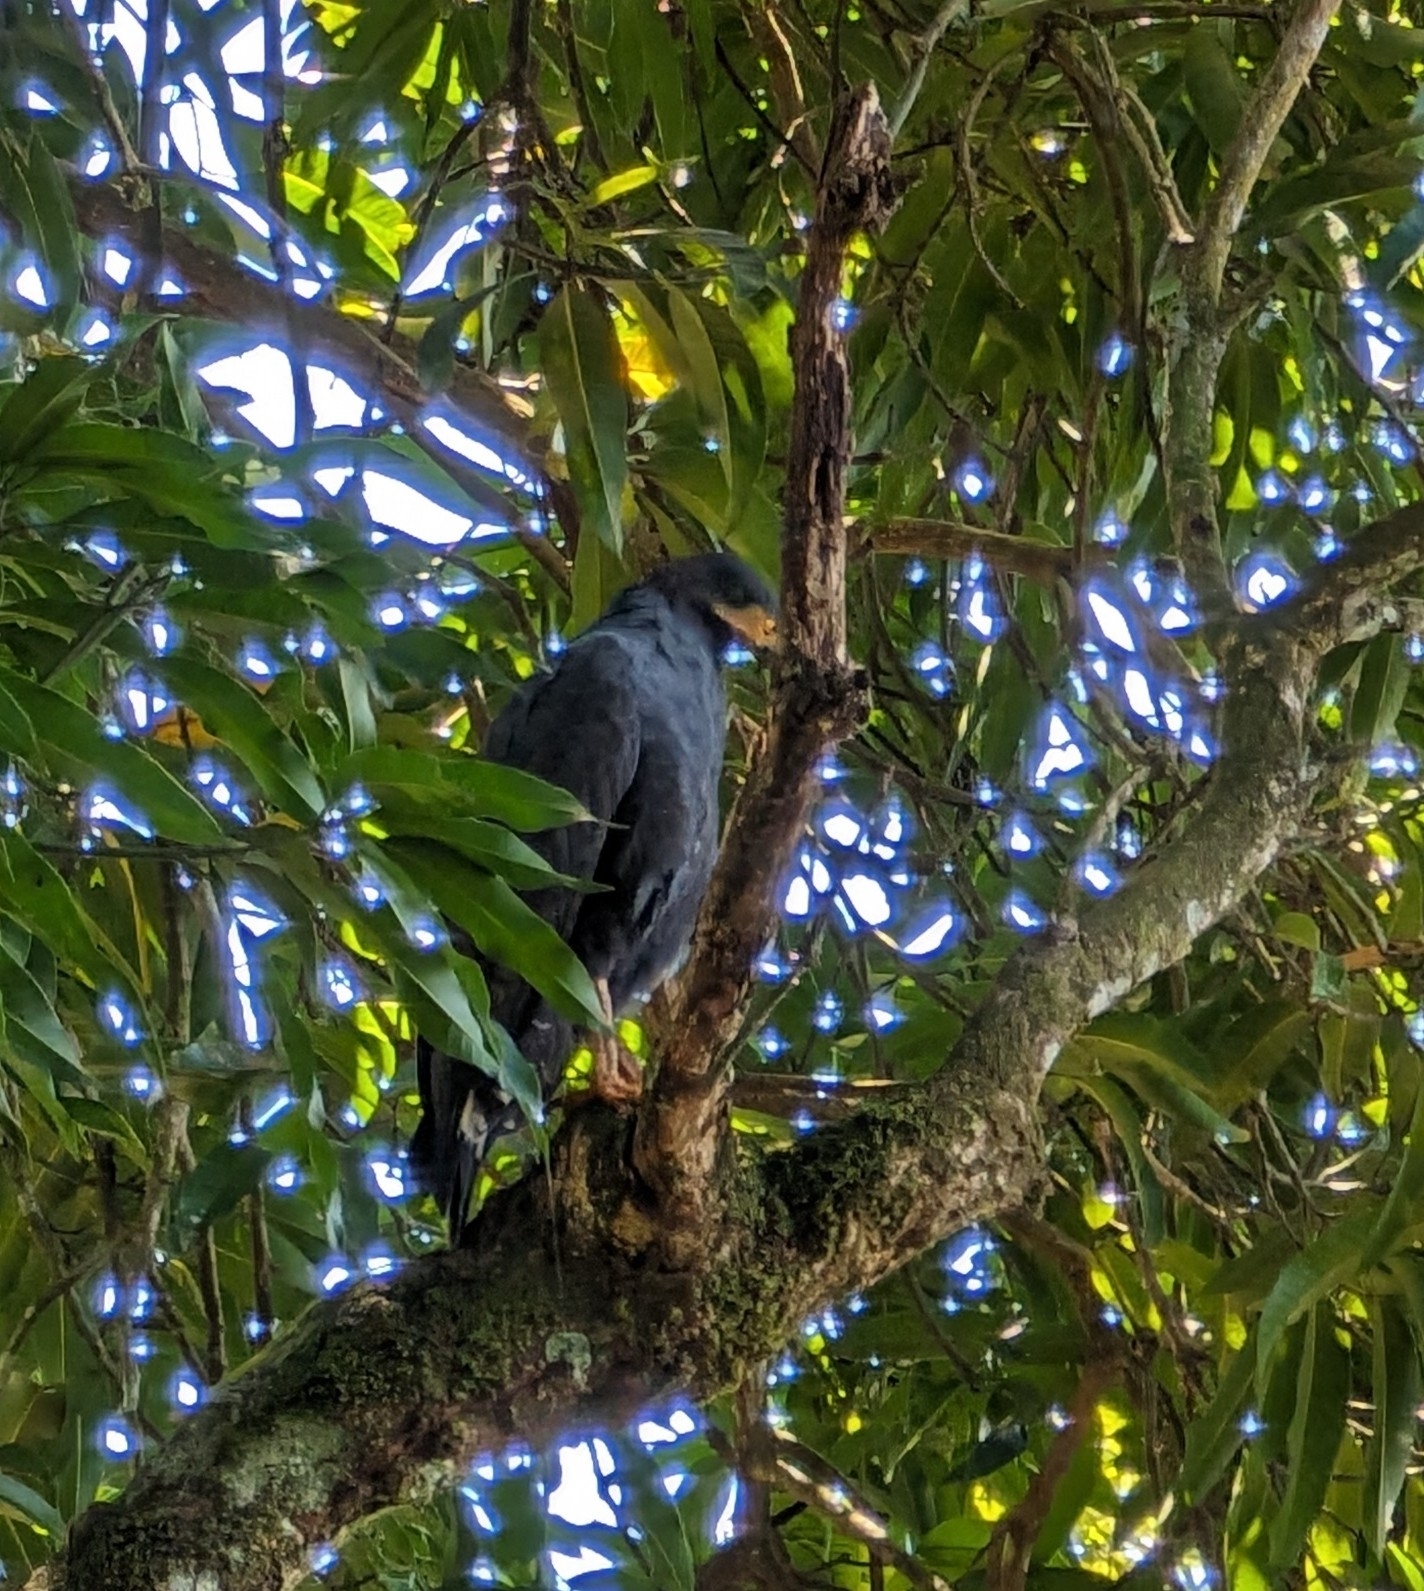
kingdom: Animalia
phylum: Chordata
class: Aves
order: Accipitriformes
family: Accipitridae
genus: Buteogallus
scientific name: Buteogallus anthracinus
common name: Common black hawk
